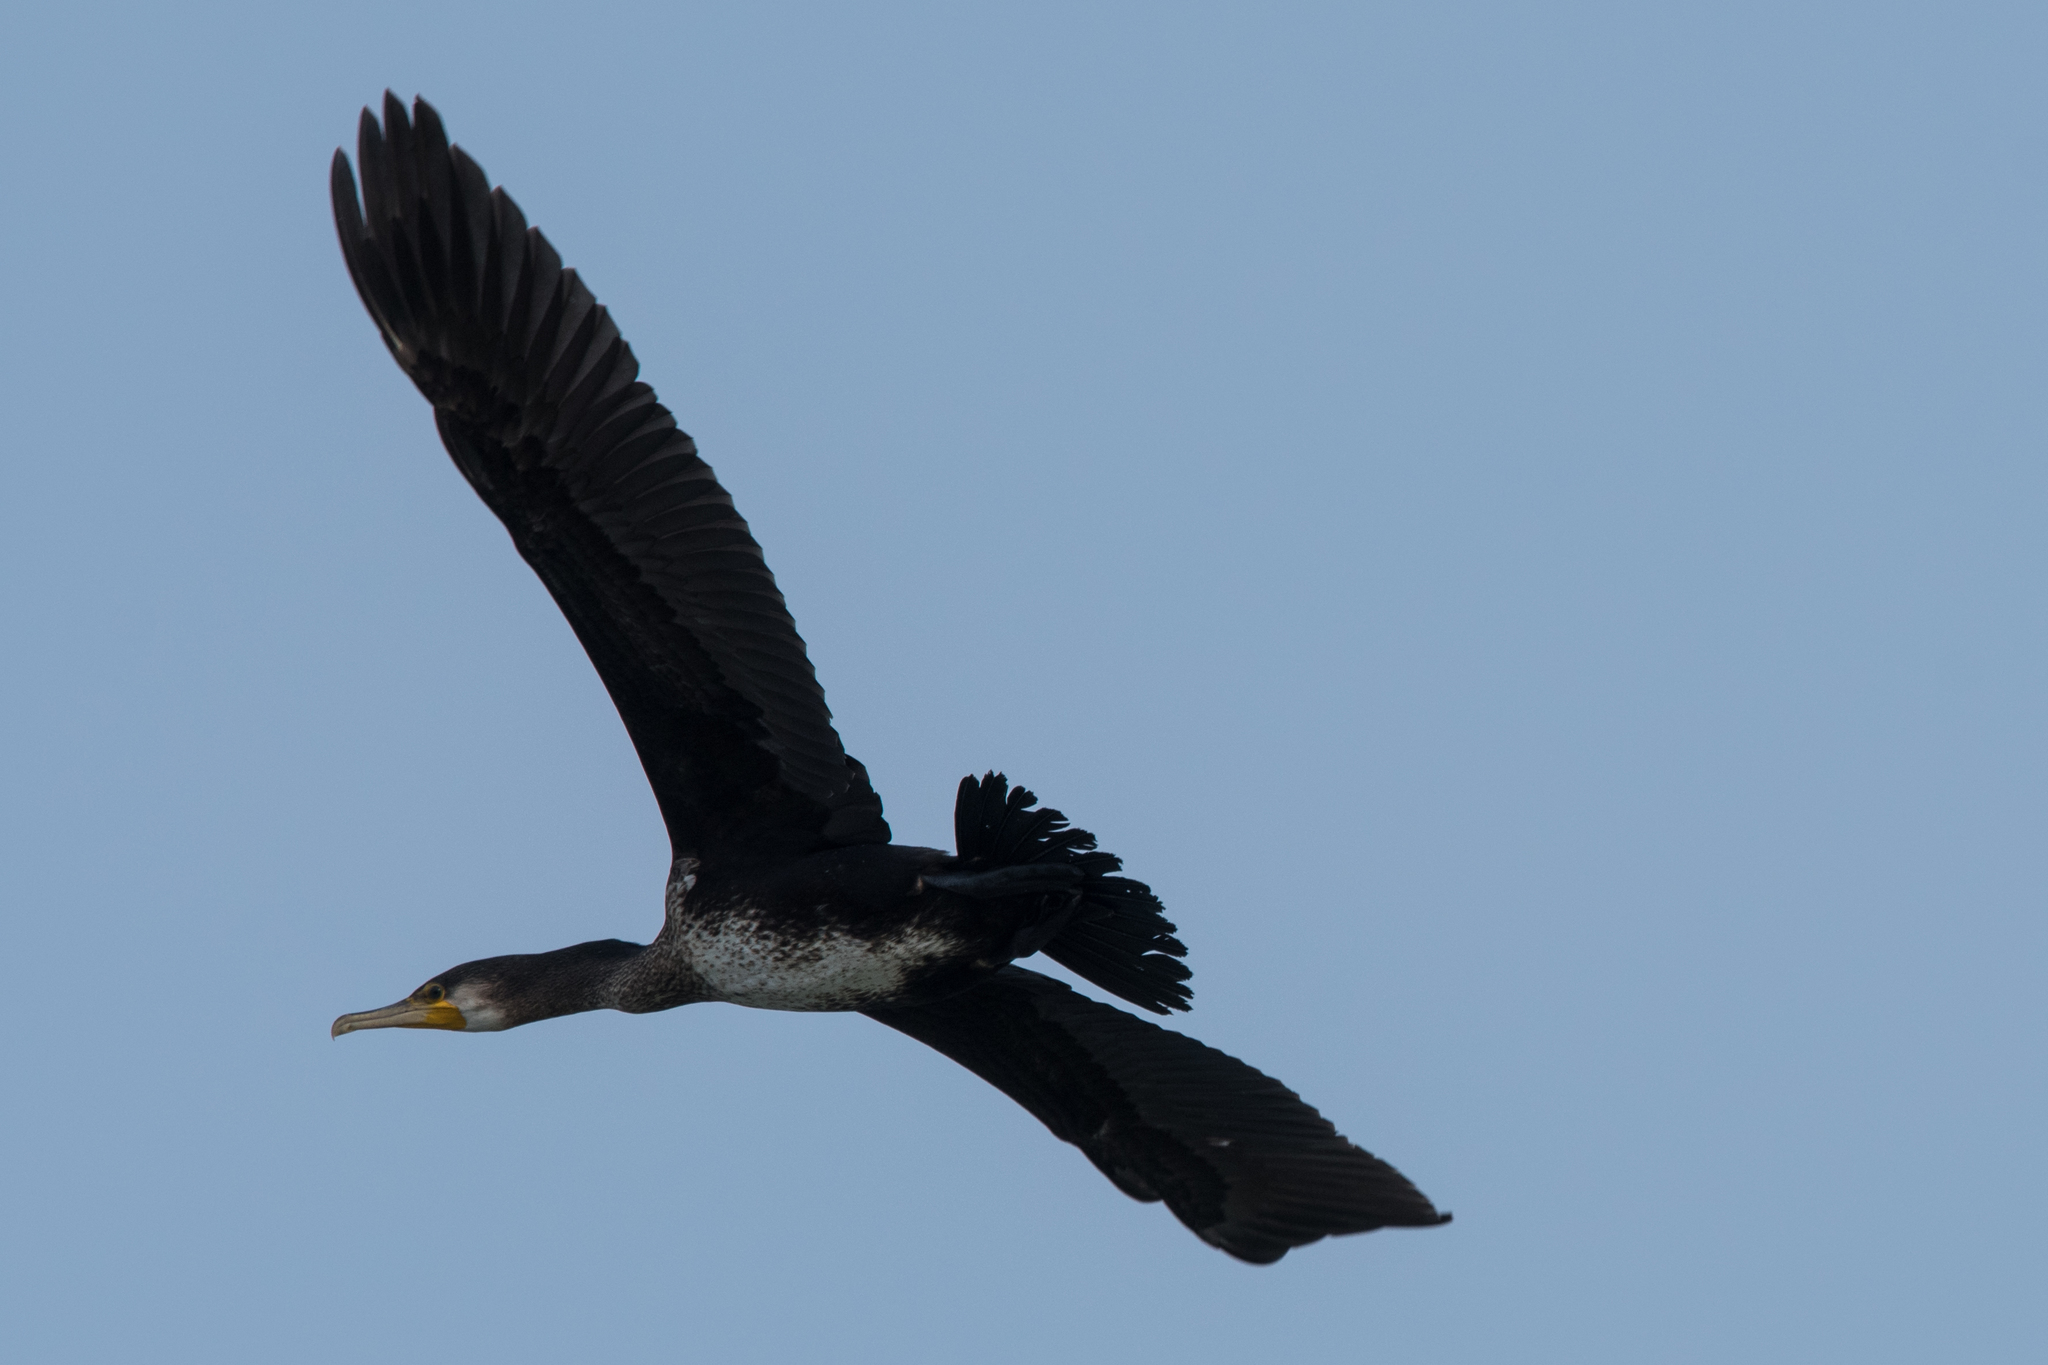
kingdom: Animalia
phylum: Chordata
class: Aves
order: Suliformes
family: Phalacrocoracidae
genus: Phalacrocorax
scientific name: Phalacrocorax carbo
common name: Great cormorant
